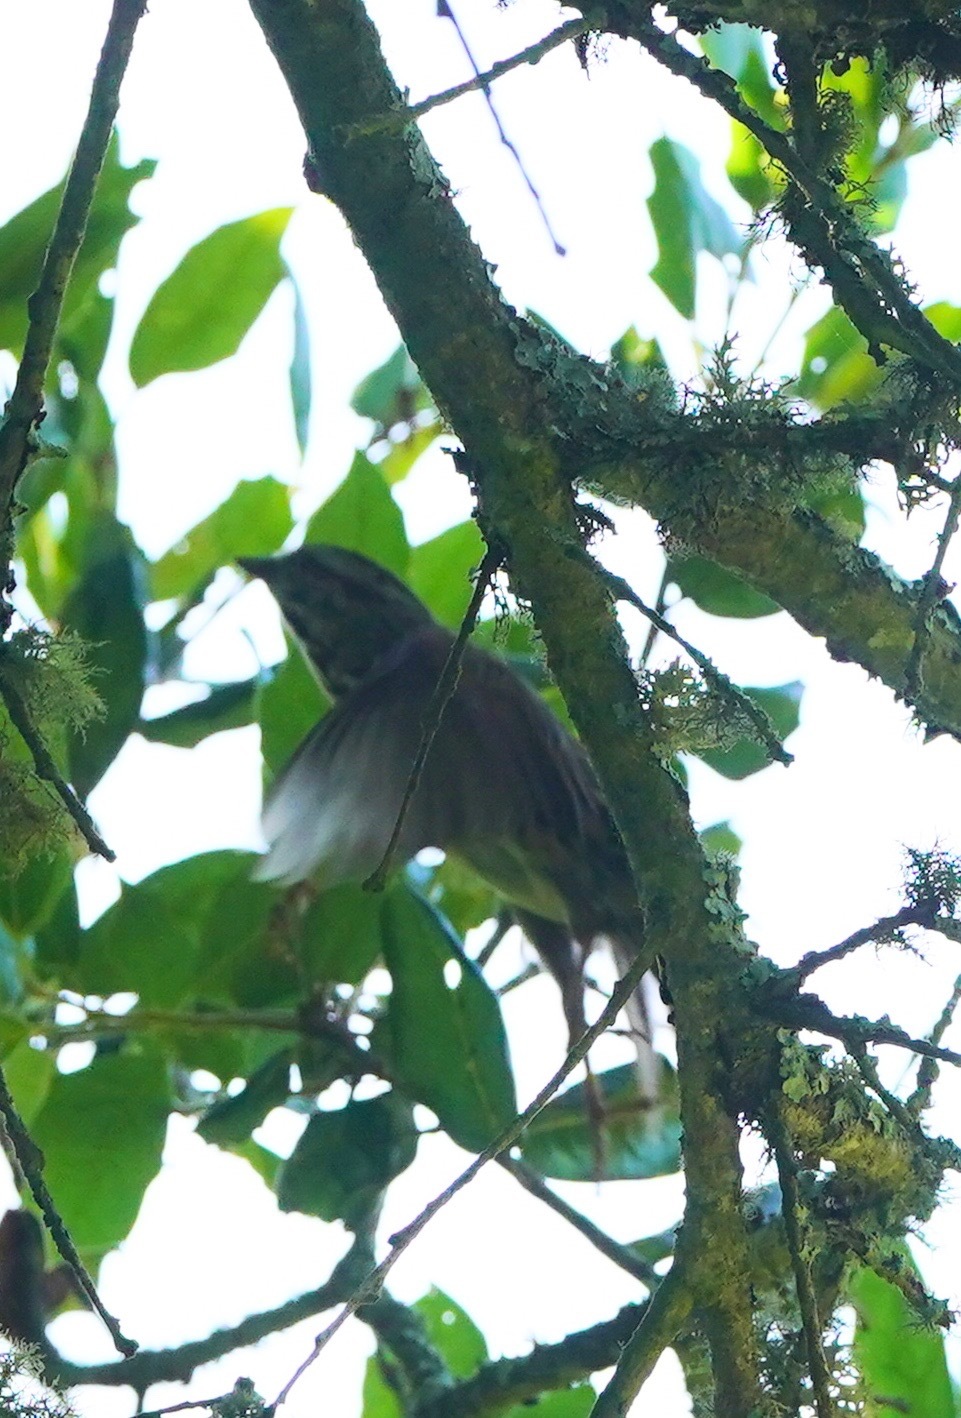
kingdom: Animalia
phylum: Chordata
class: Aves
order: Passeriformes
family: Passerellidae
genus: Melospiza
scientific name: Melospiza melodia
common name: Song sparrow
